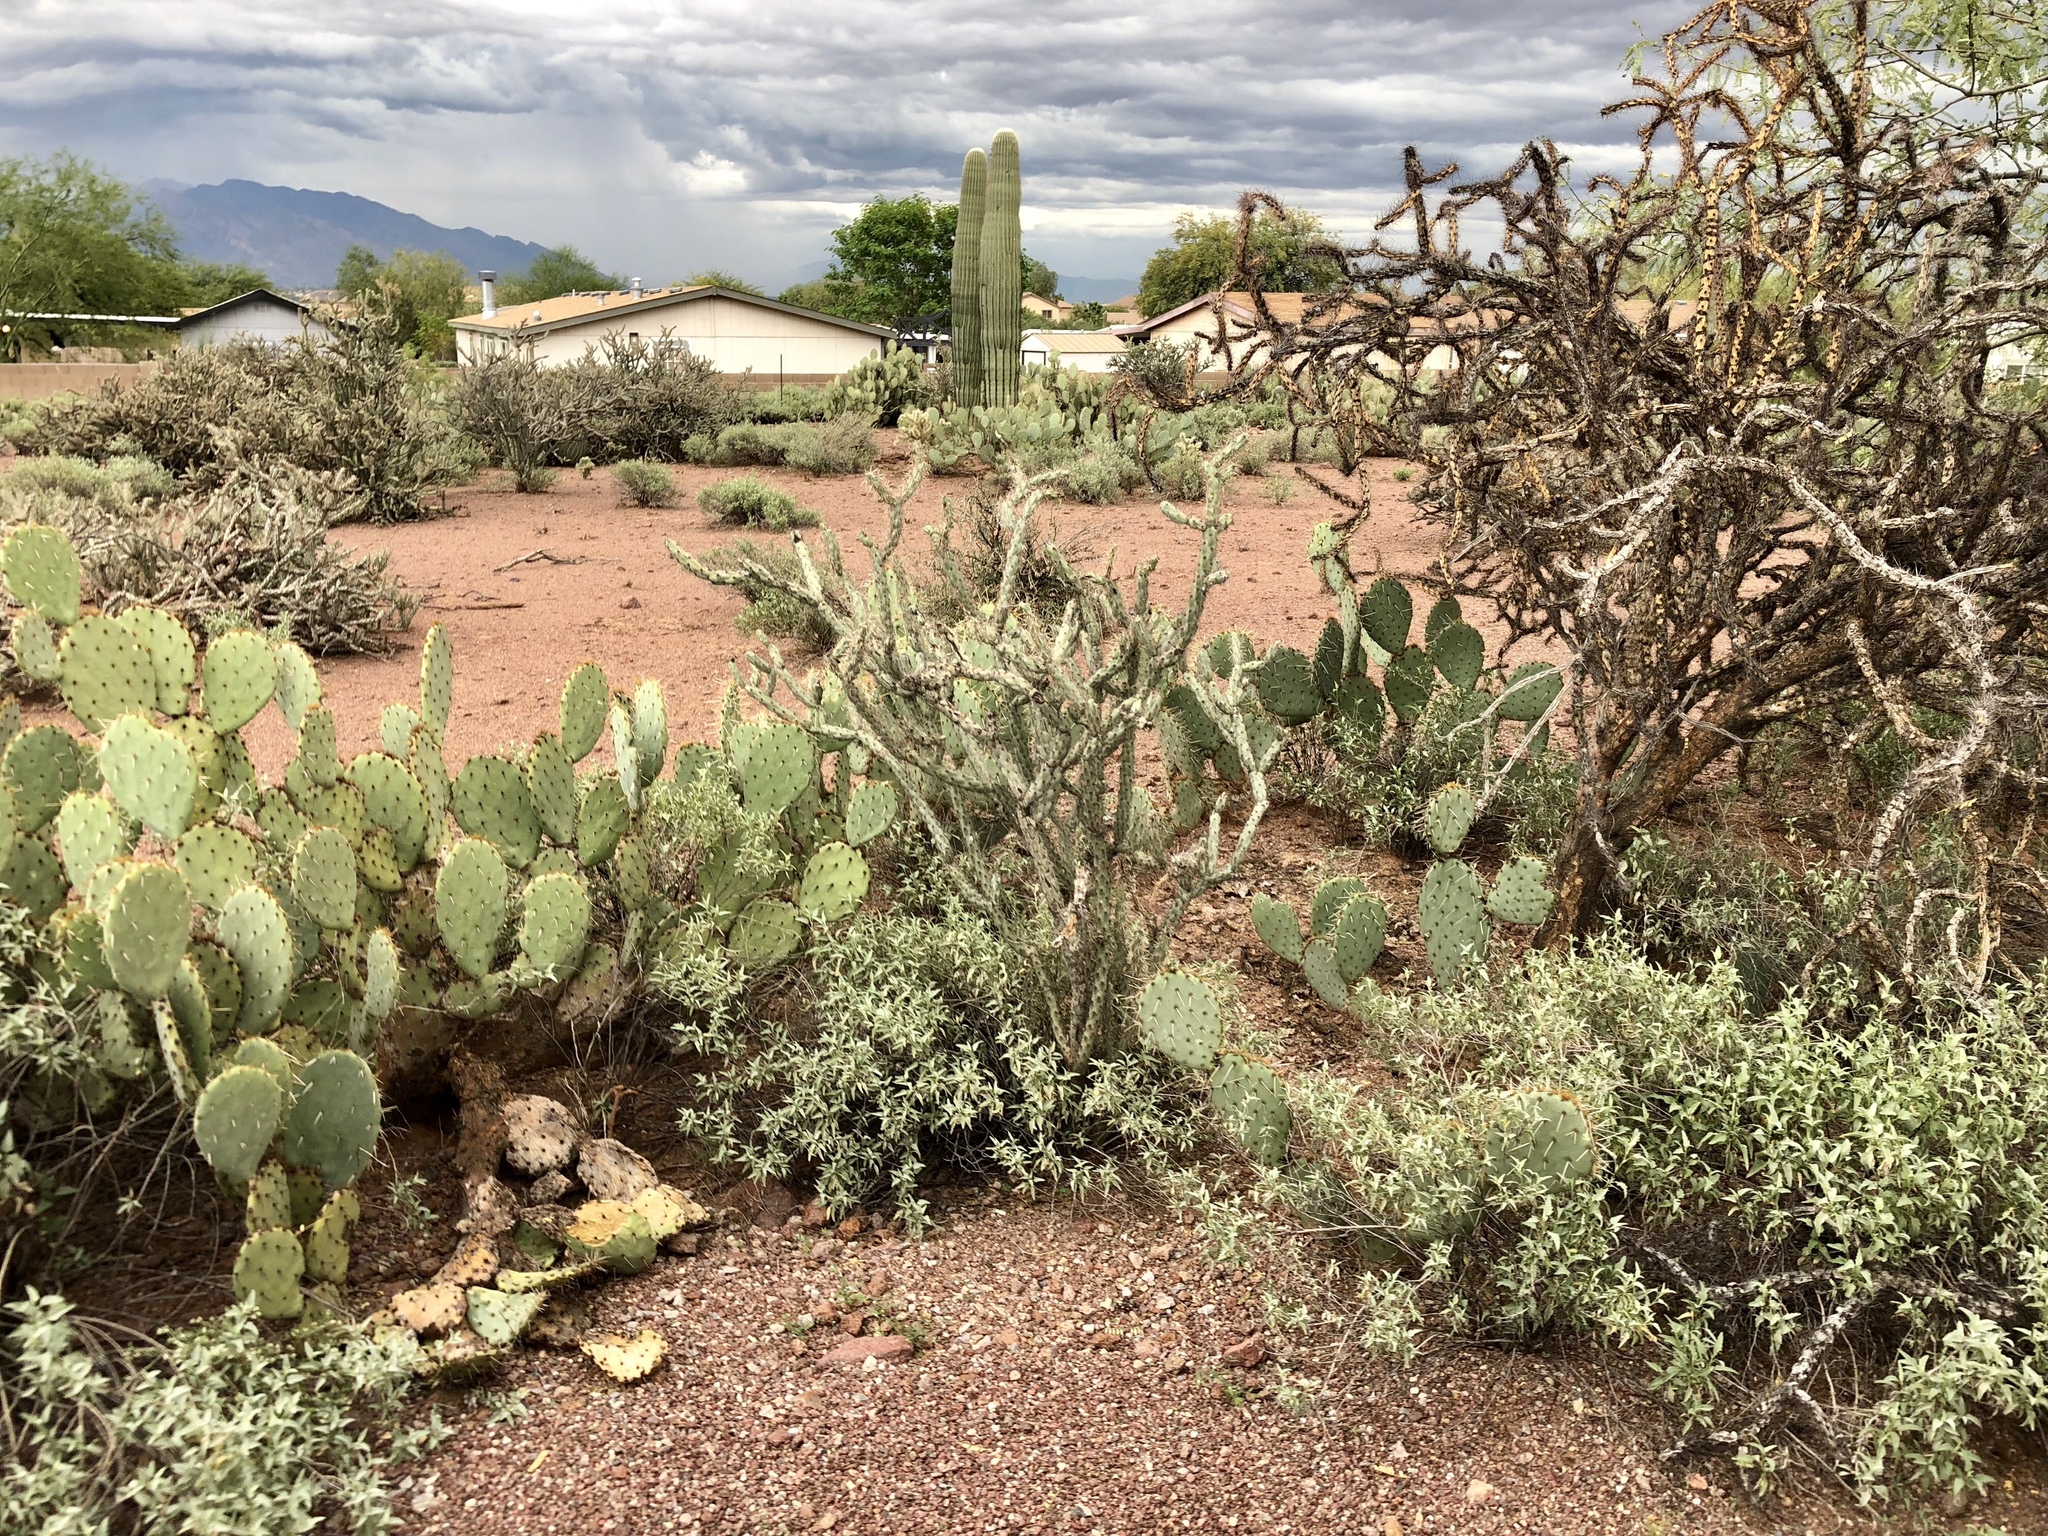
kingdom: Plantae
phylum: Tracheophyta
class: Magnoliopsida
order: Caryophyllales
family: Cactaceae
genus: Cylindropuntia
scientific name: Cylindropuntia acanthocarpa
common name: Buckhorn cholla
